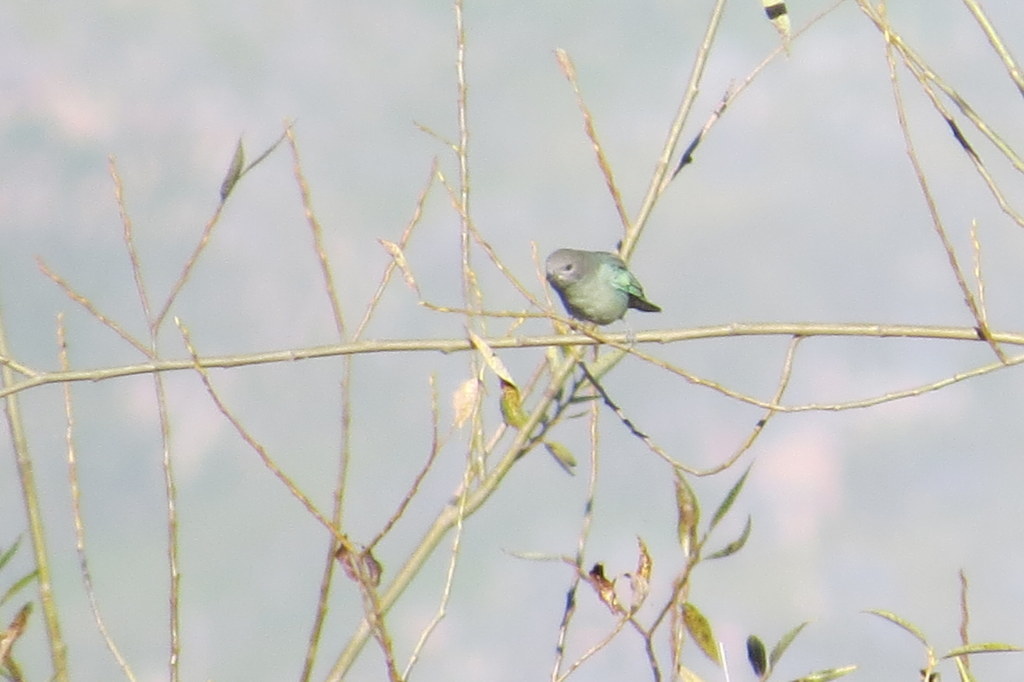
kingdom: Animalia
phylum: Chordata
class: Aves
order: Passeriformes
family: Thraupidae
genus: Thraupis
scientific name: Thraupis sayaca
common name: Sayaca tanager
